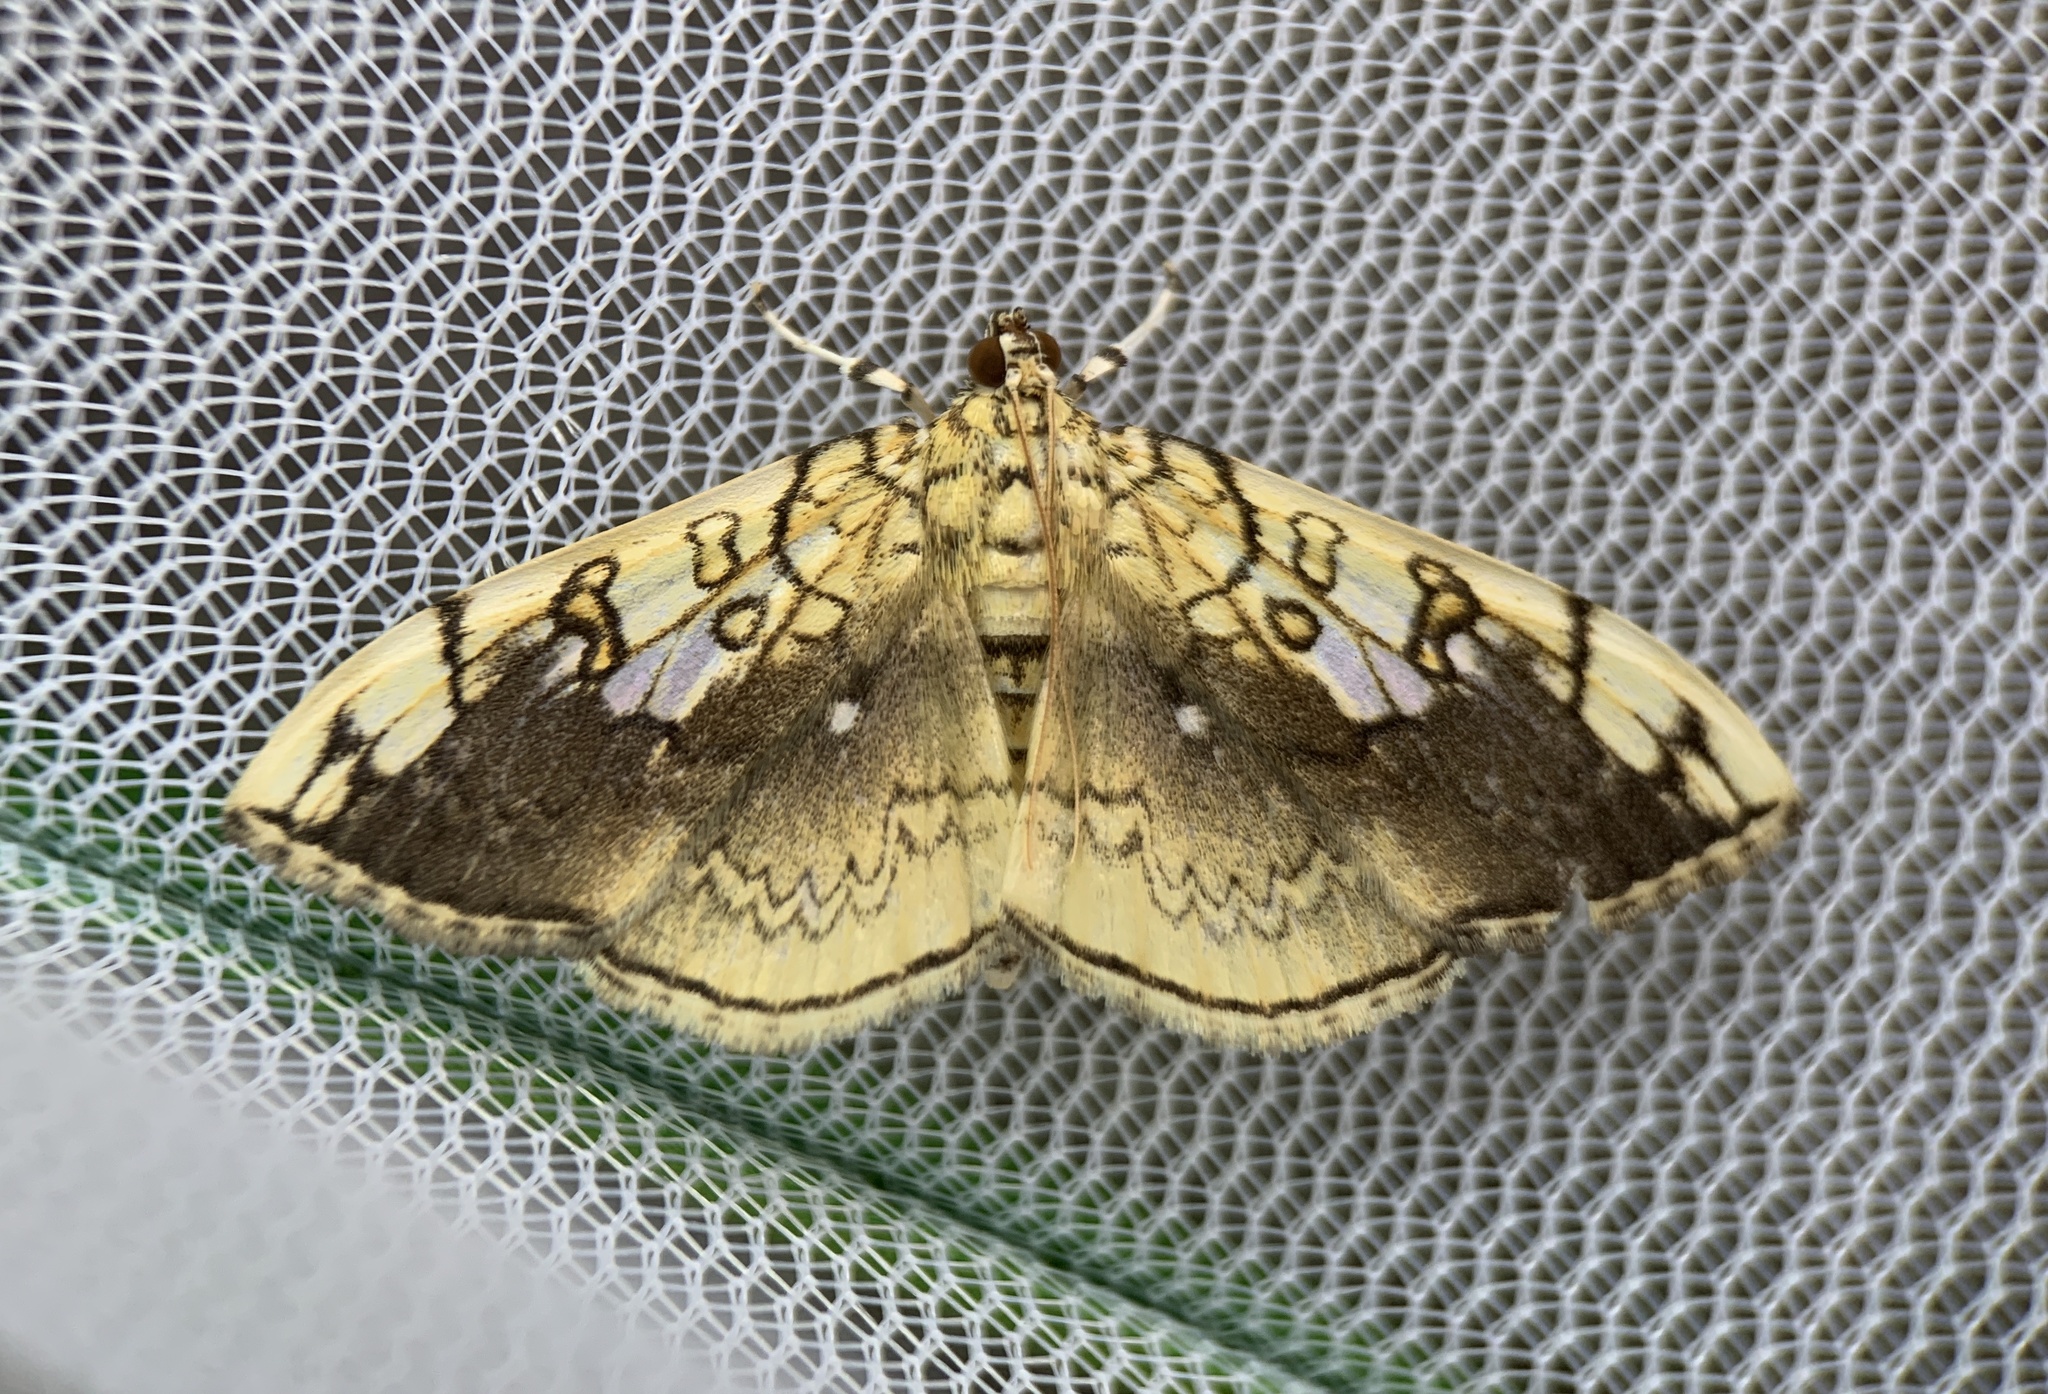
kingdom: Animalia
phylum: Arthropoda
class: Insecta
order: Lepidoptera
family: Crambidae
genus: Pantographa
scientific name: Pantographa limata
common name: Basswood leafroller moth
